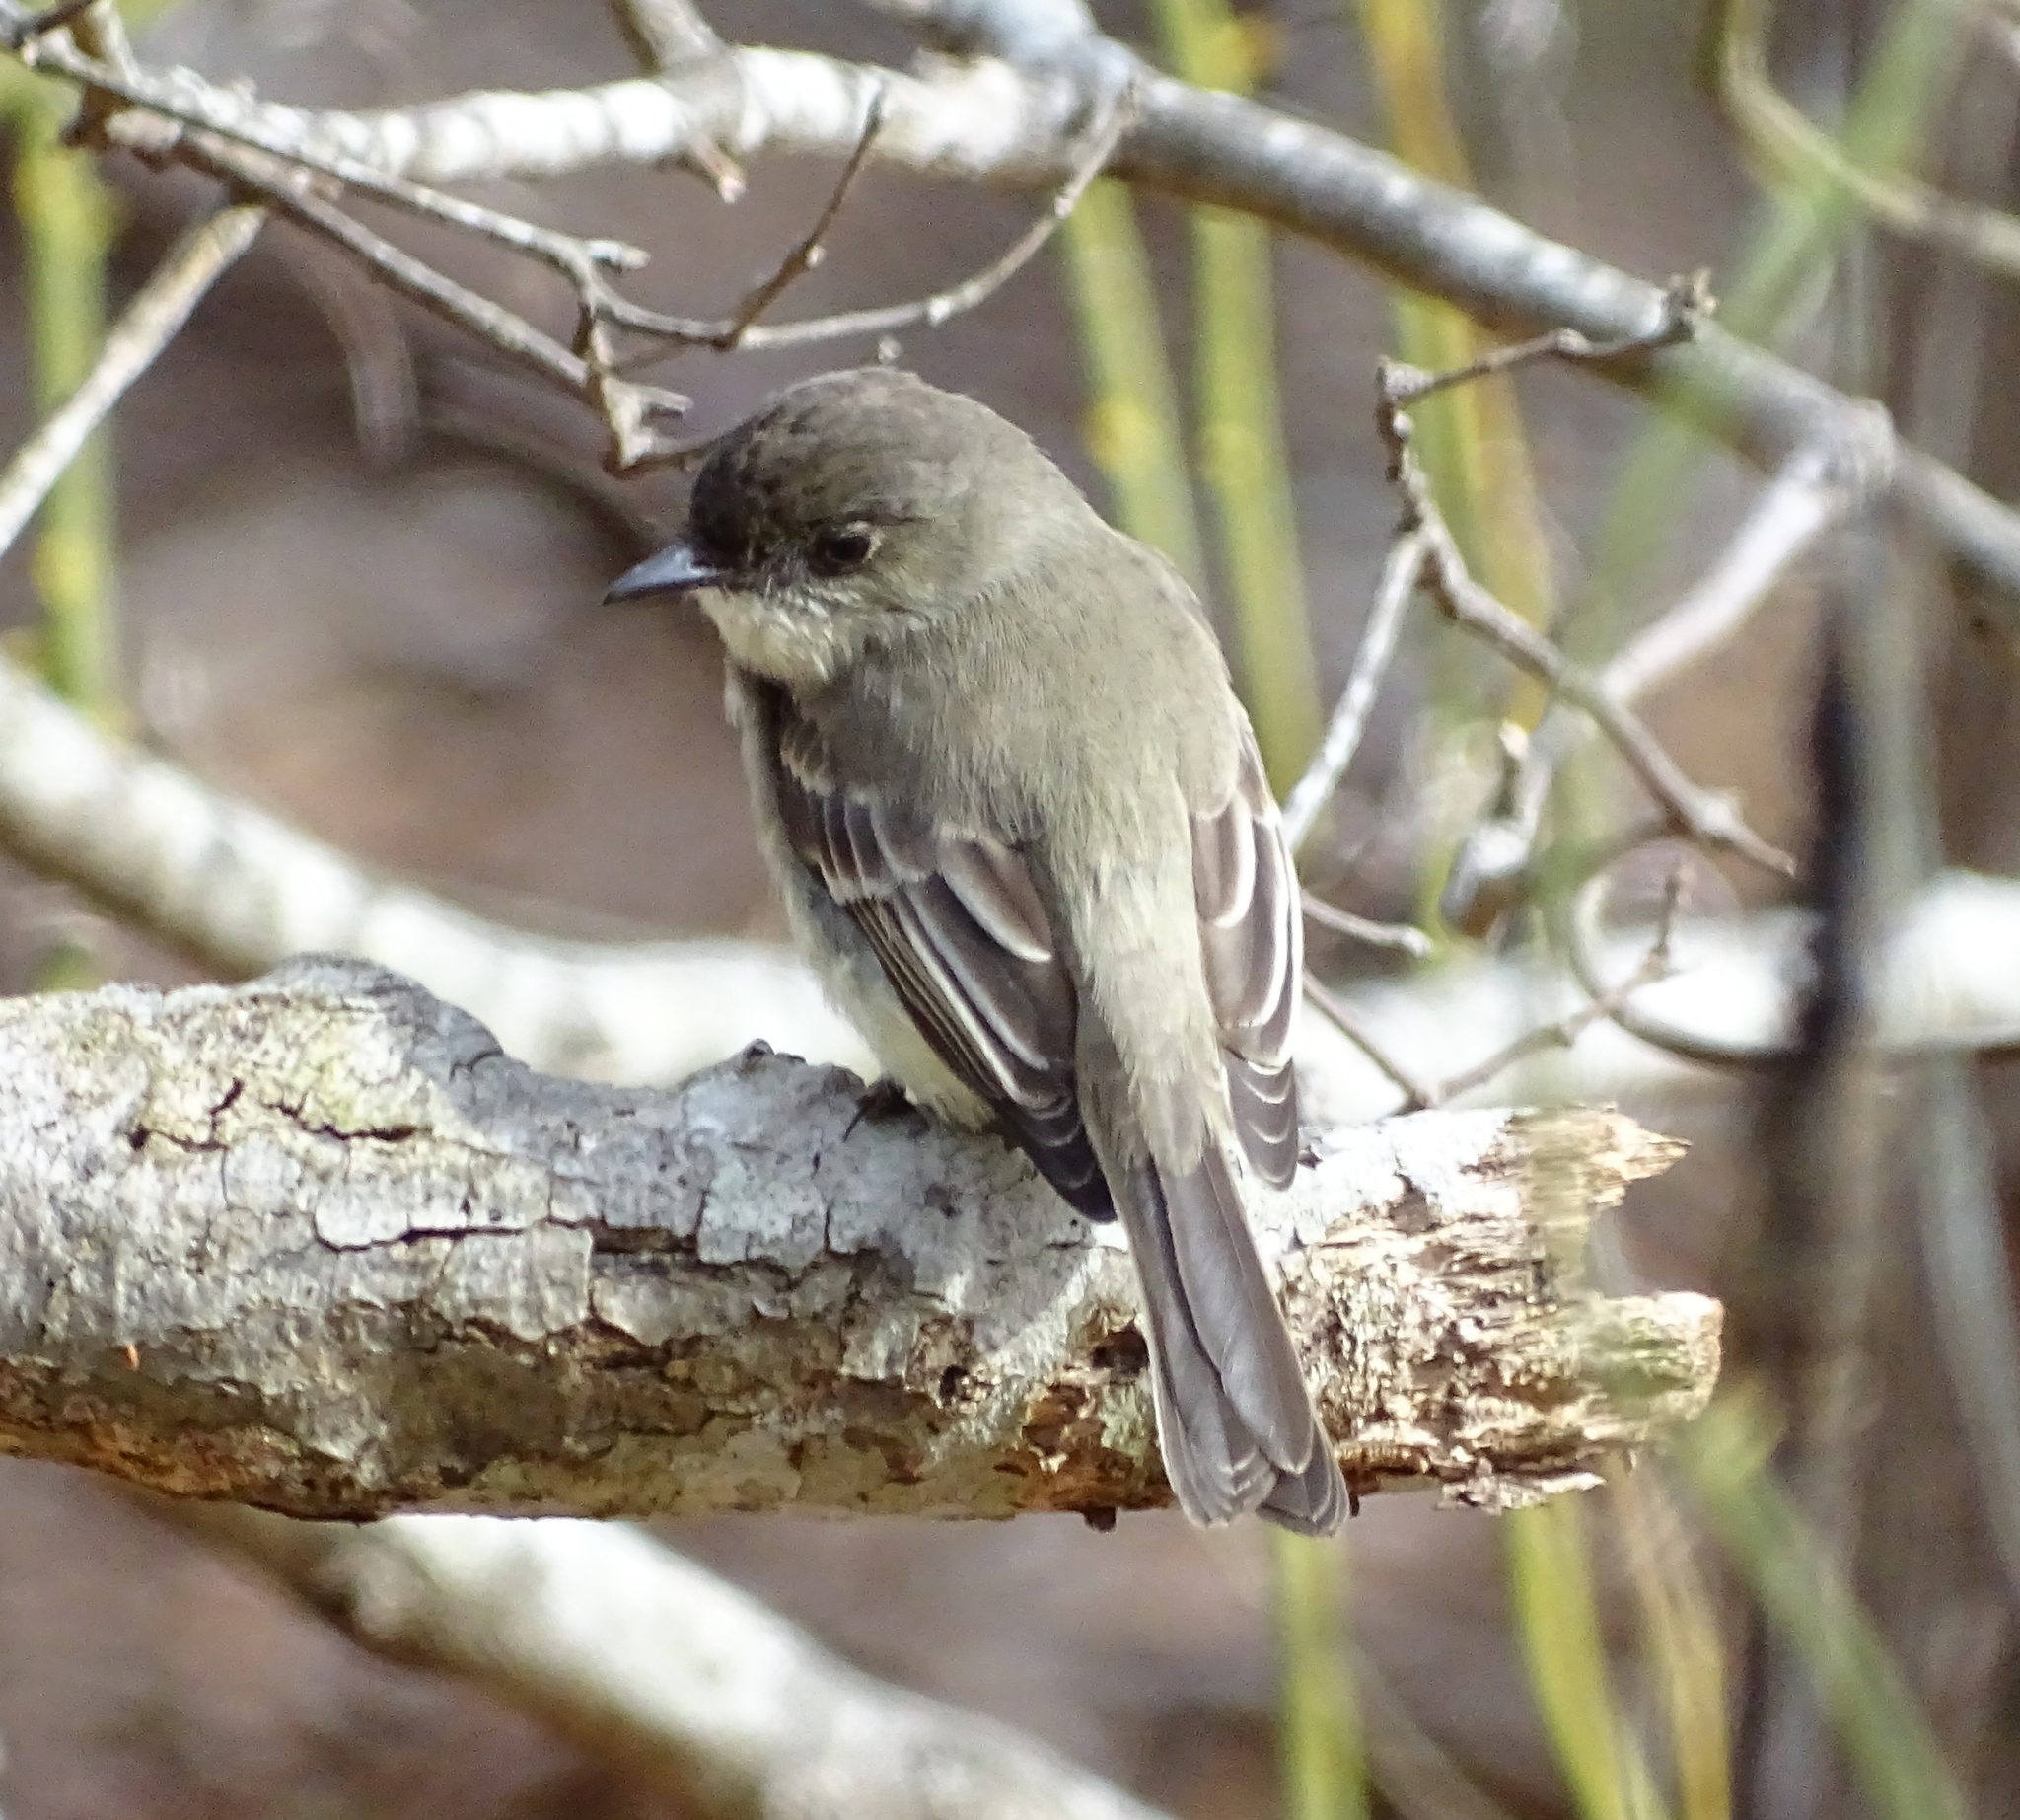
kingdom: Animalia
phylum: Chordata
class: Aves
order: Passeriformes
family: Tyrannidae
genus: Sayornis
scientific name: Sayornis phoebe
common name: Eastern phoebe
